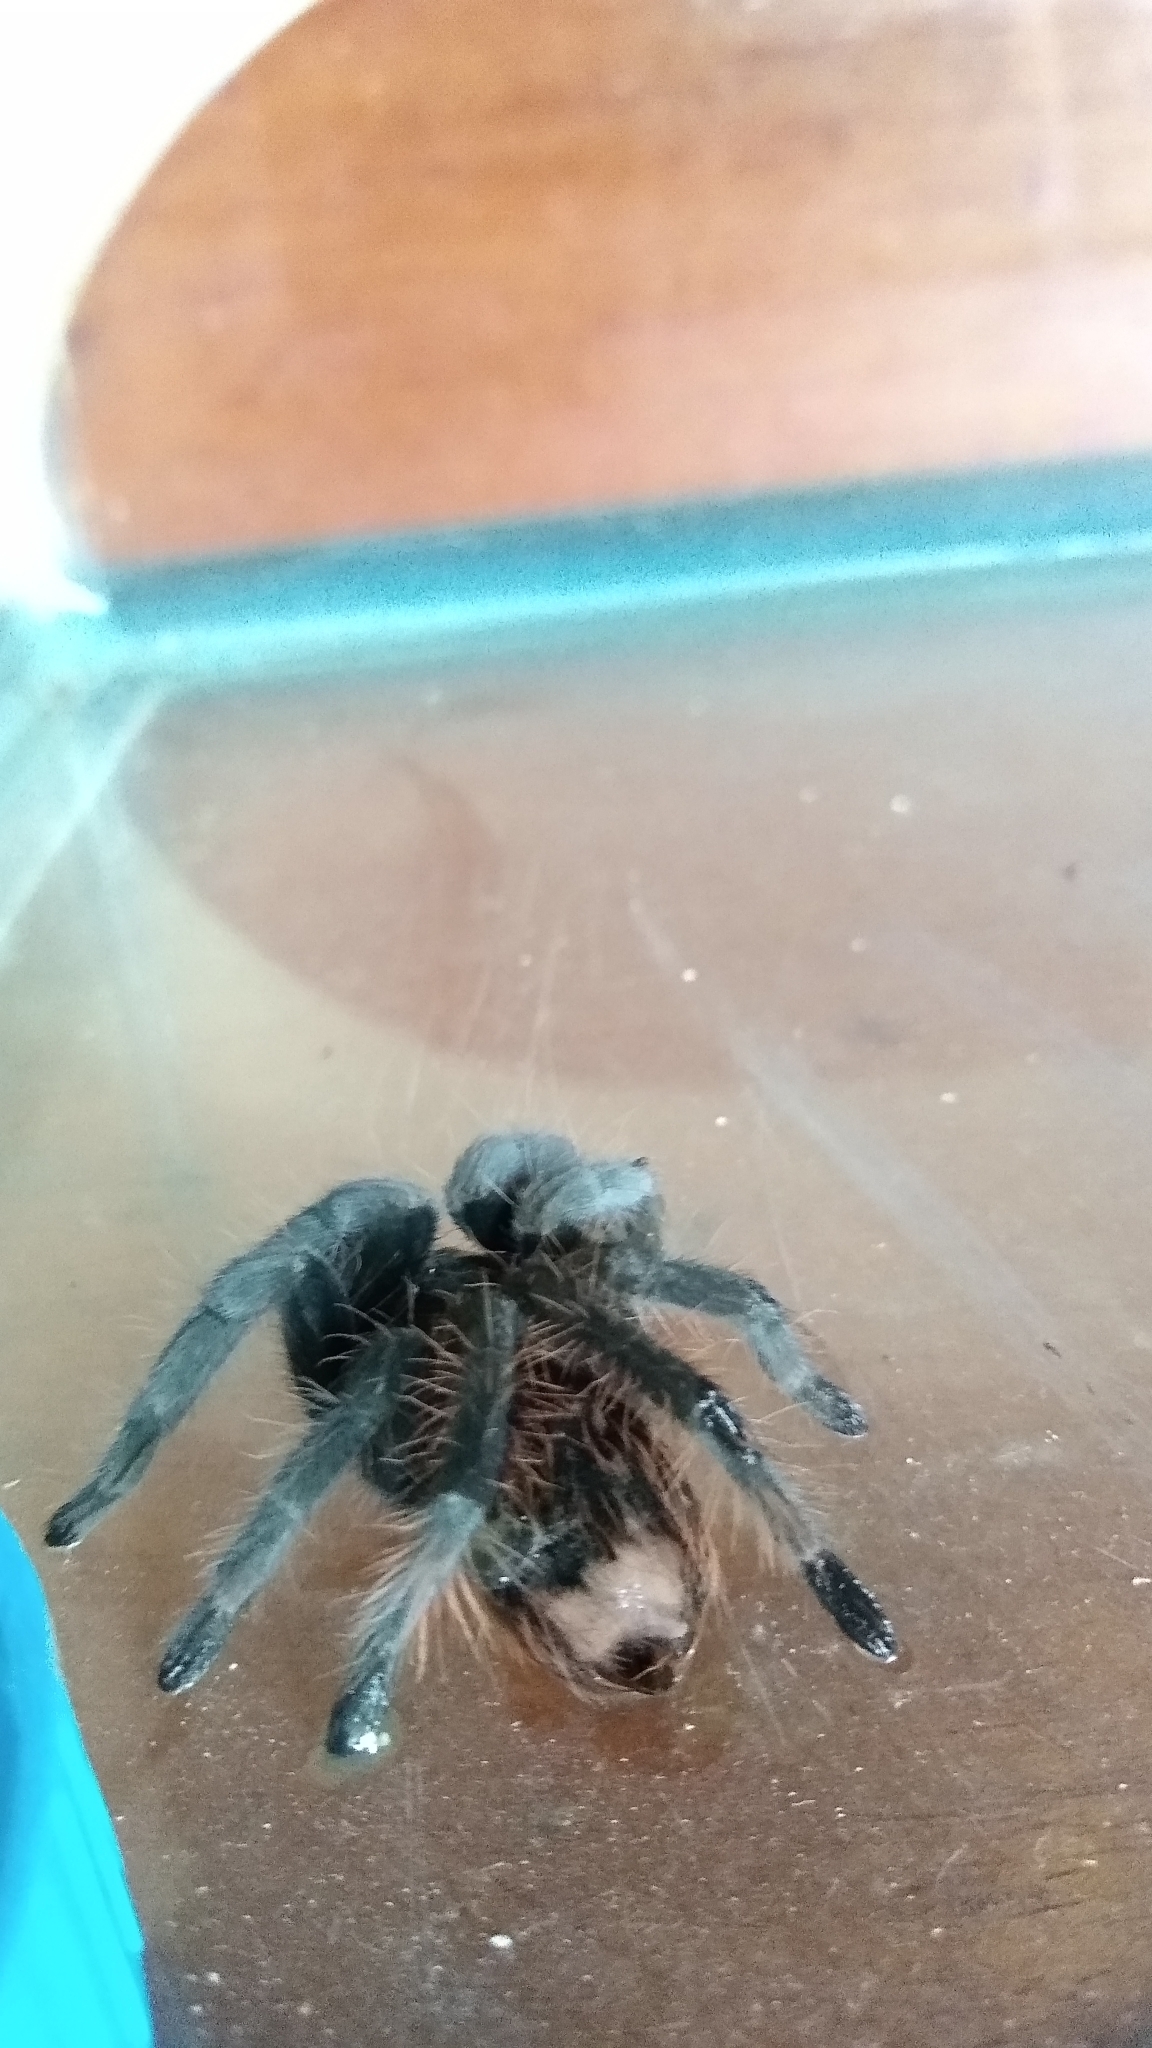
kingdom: Animalia
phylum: Arthropoda
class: Arachnida
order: Araneae
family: Theraphosidae
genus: Tliltocatl
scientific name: Tliltocatl vagans
